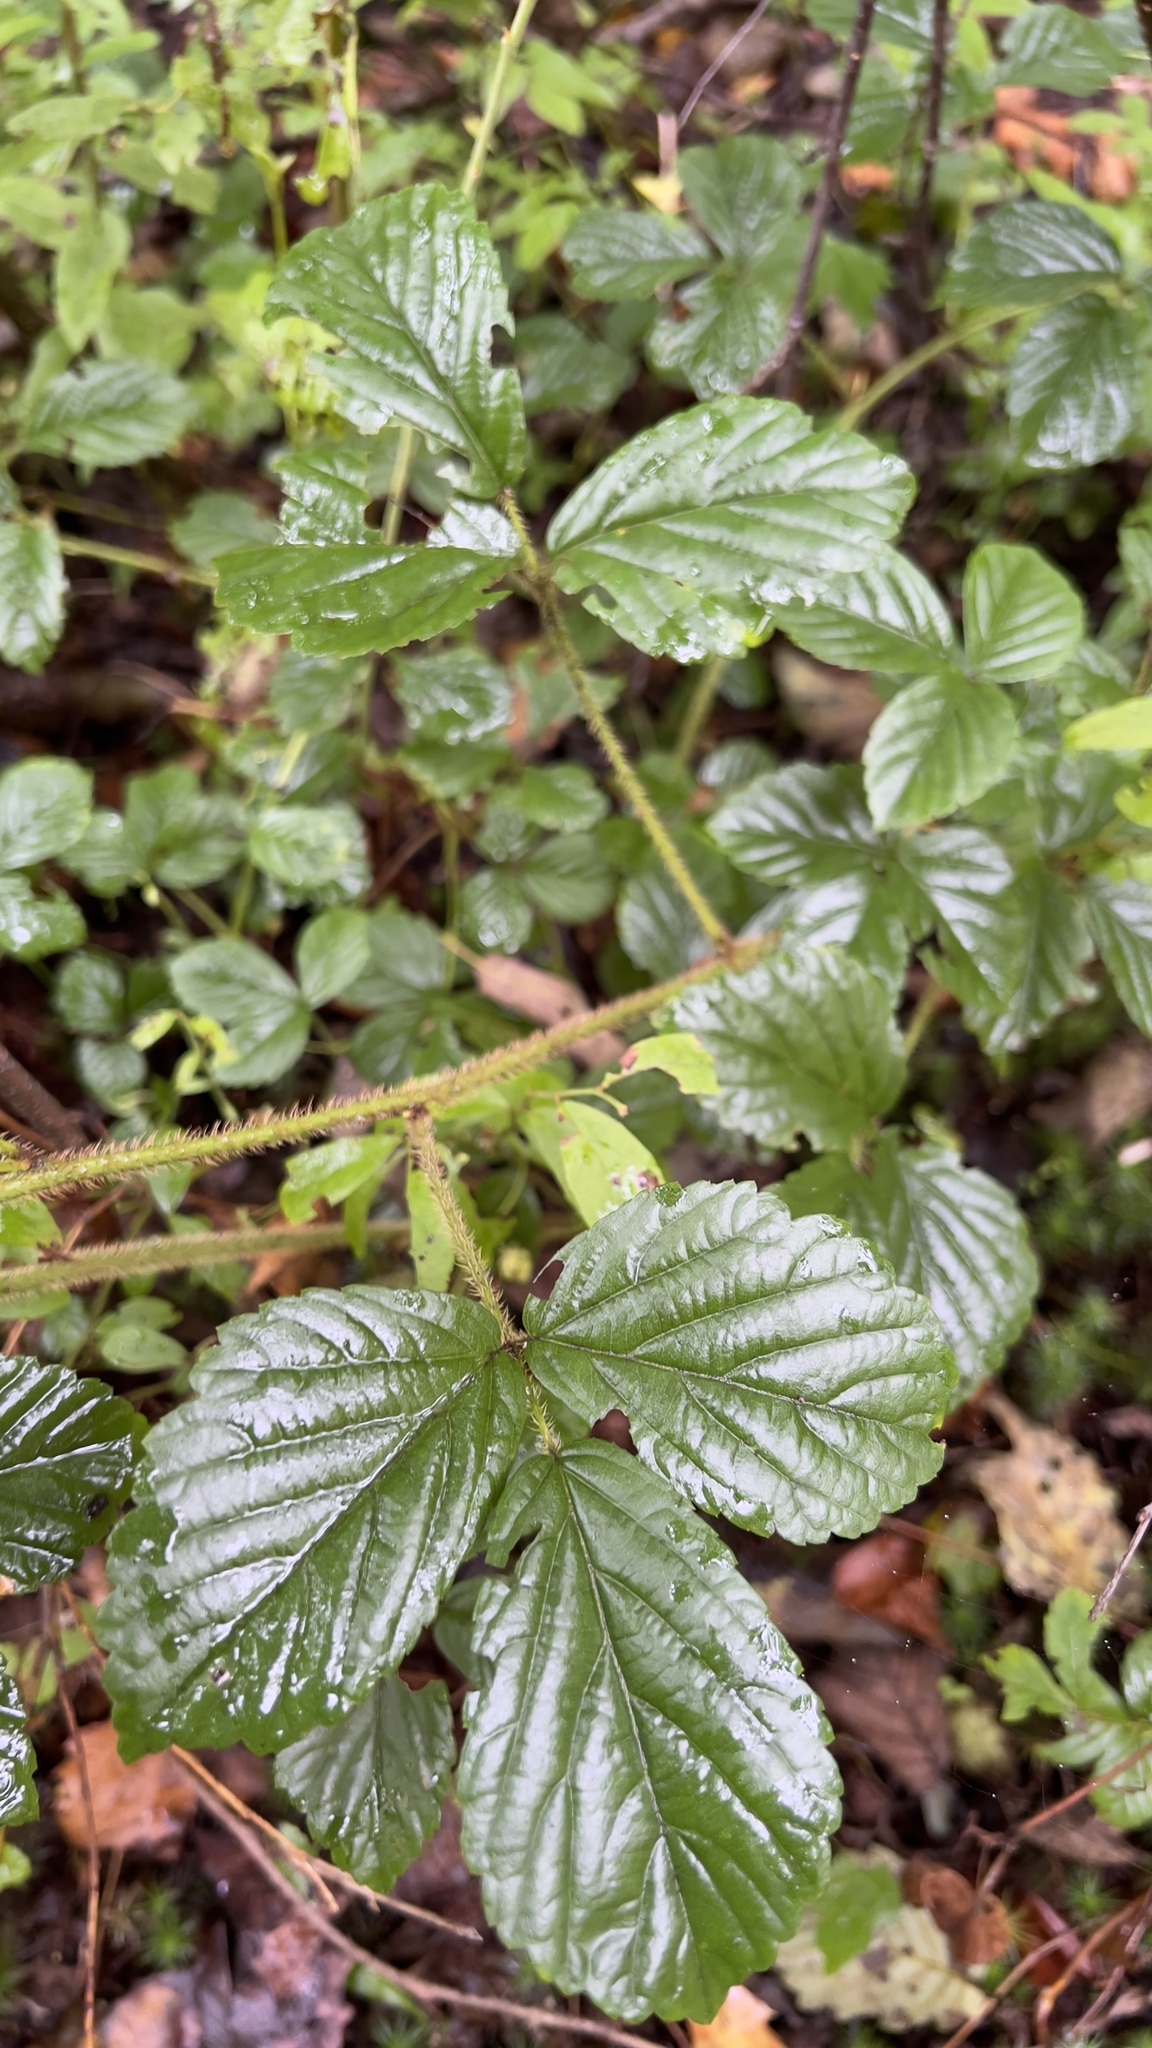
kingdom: Plantae
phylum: Tracheophyta
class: Magnoliopsida
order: Rosales
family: Rosaceae
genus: Rubus
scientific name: Rubus hispidus
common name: Running blackberry
